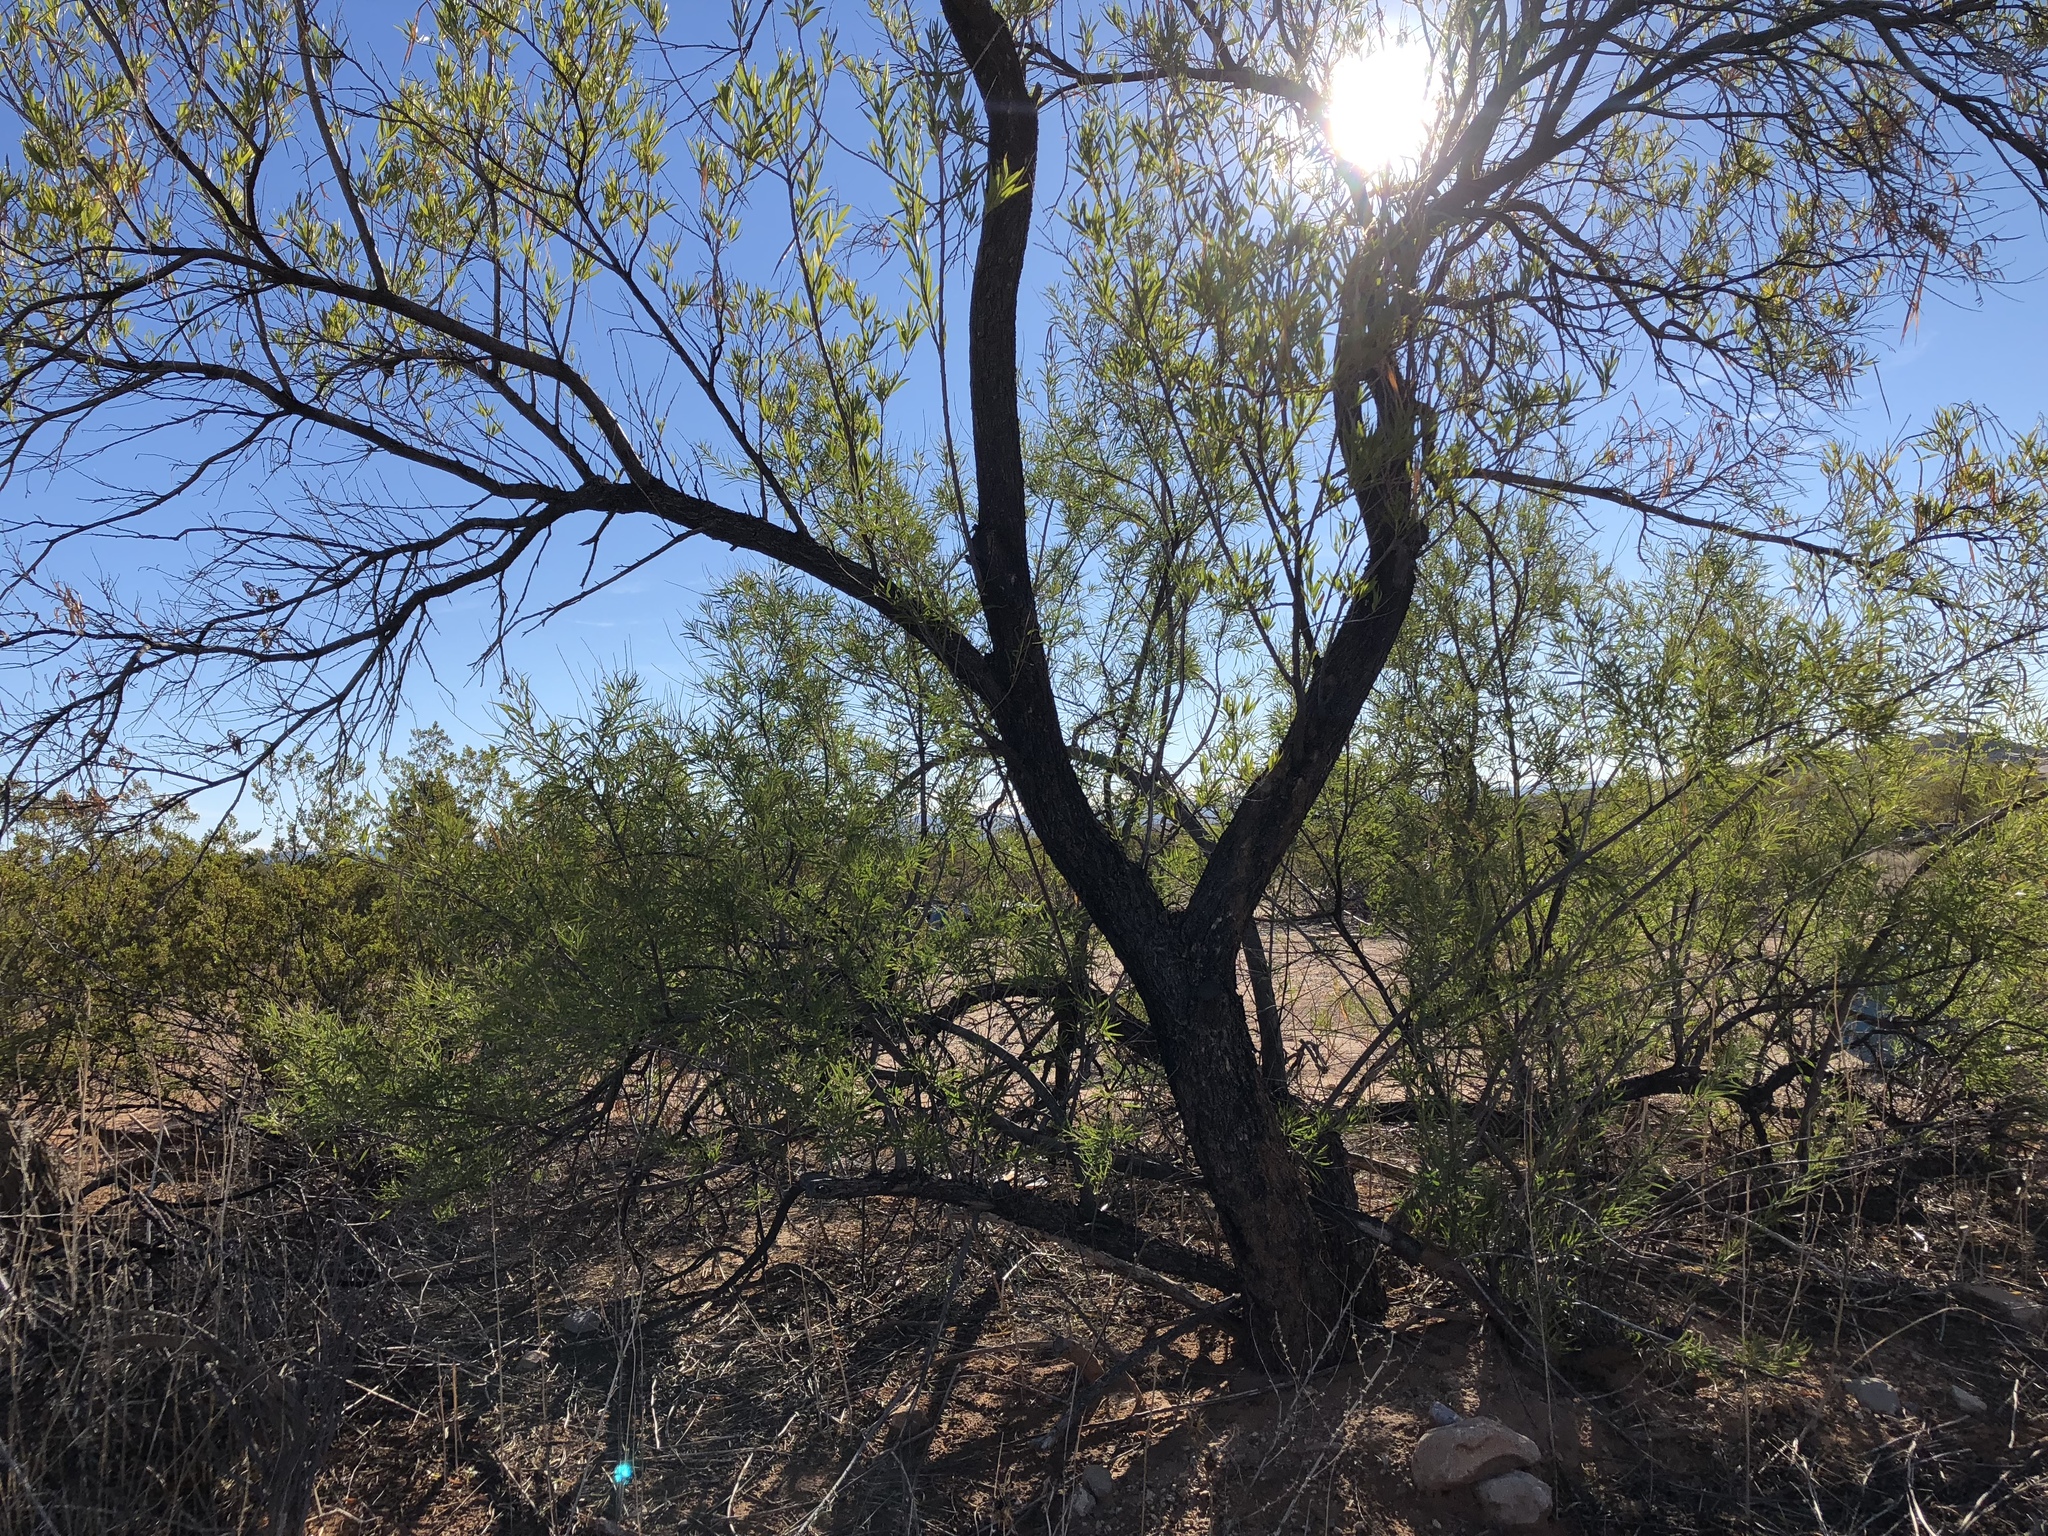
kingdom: Plantae
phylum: Tracheophyta
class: Magnoliopsida
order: Lamiales
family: Bignoniaceae
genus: Chilopsis
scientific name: Chilopsis linearis
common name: Desert-willow
